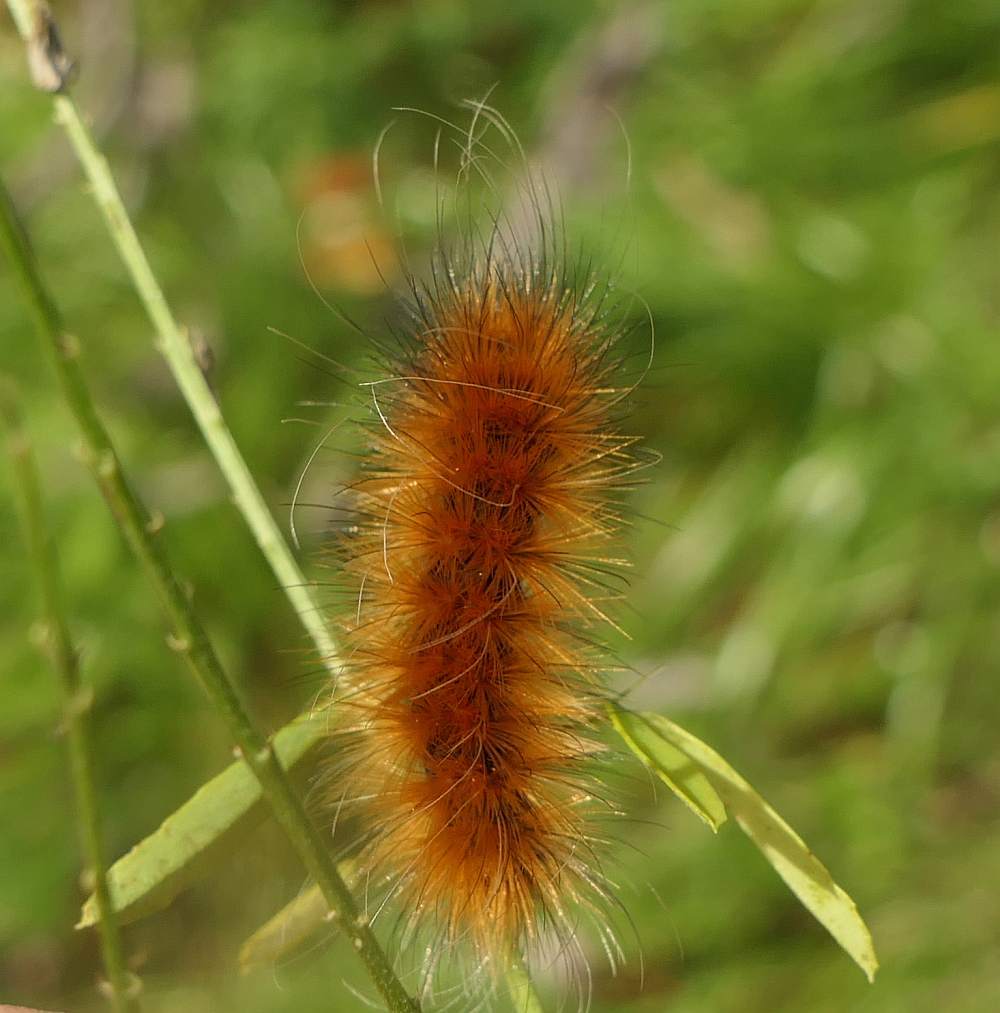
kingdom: Animalia
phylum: Arthropoda
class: Insecta
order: Lepidoptera
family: Erebidae
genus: Spilosoma
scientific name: Spilosoma virginica
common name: Virginia tiger moth
